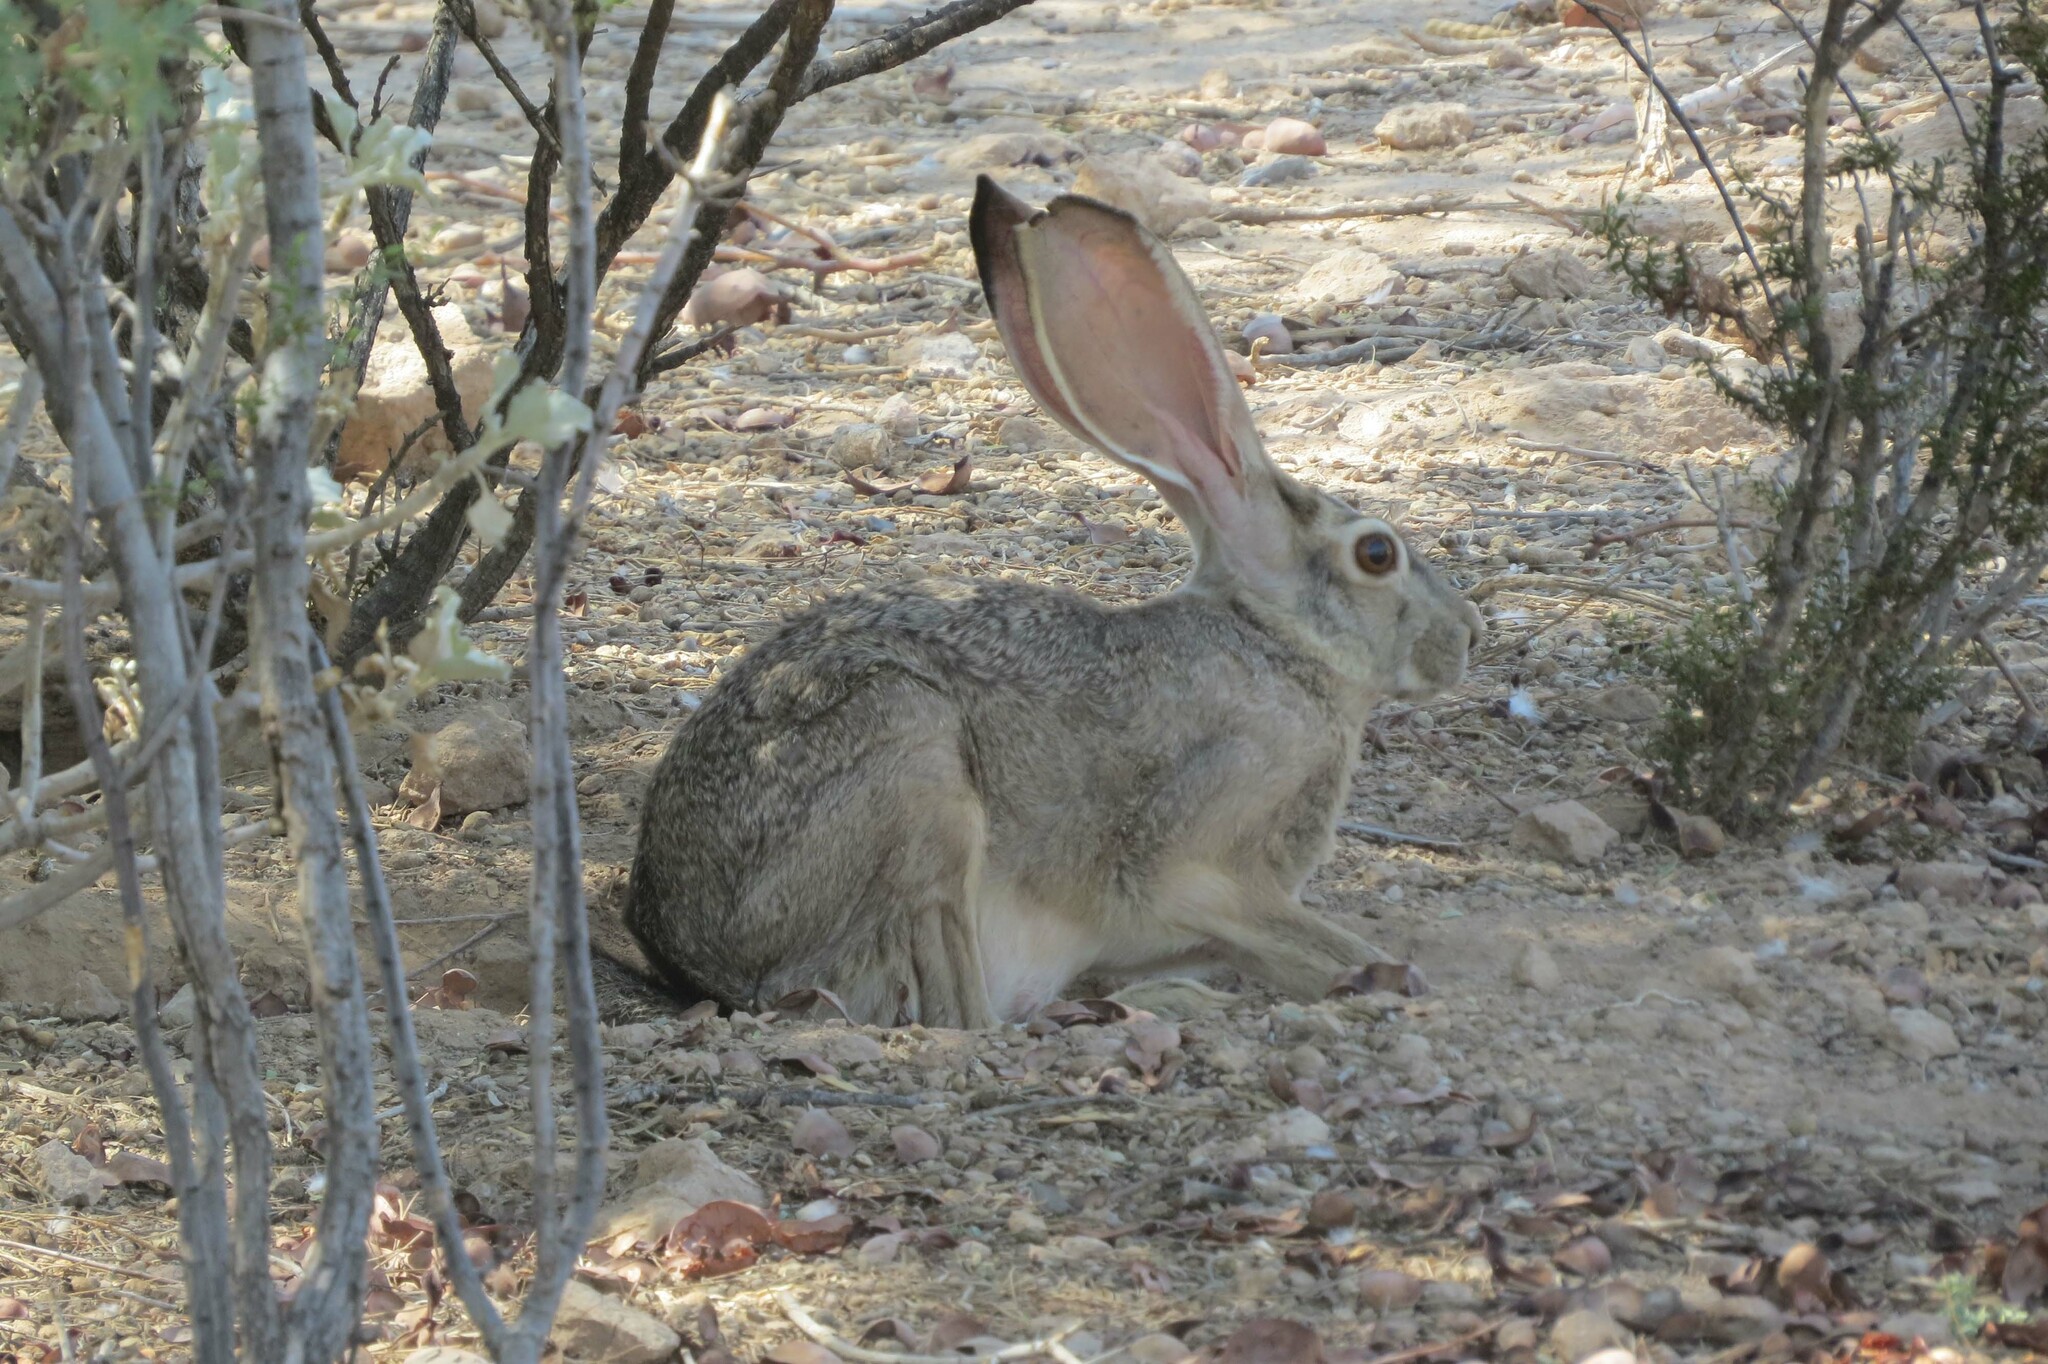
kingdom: Animalia
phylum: Chordata
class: Mammalia
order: Lagomorpha
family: Leporidae
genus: Lepus
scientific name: Lepus californicus
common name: Black-tailed jackrabbit
